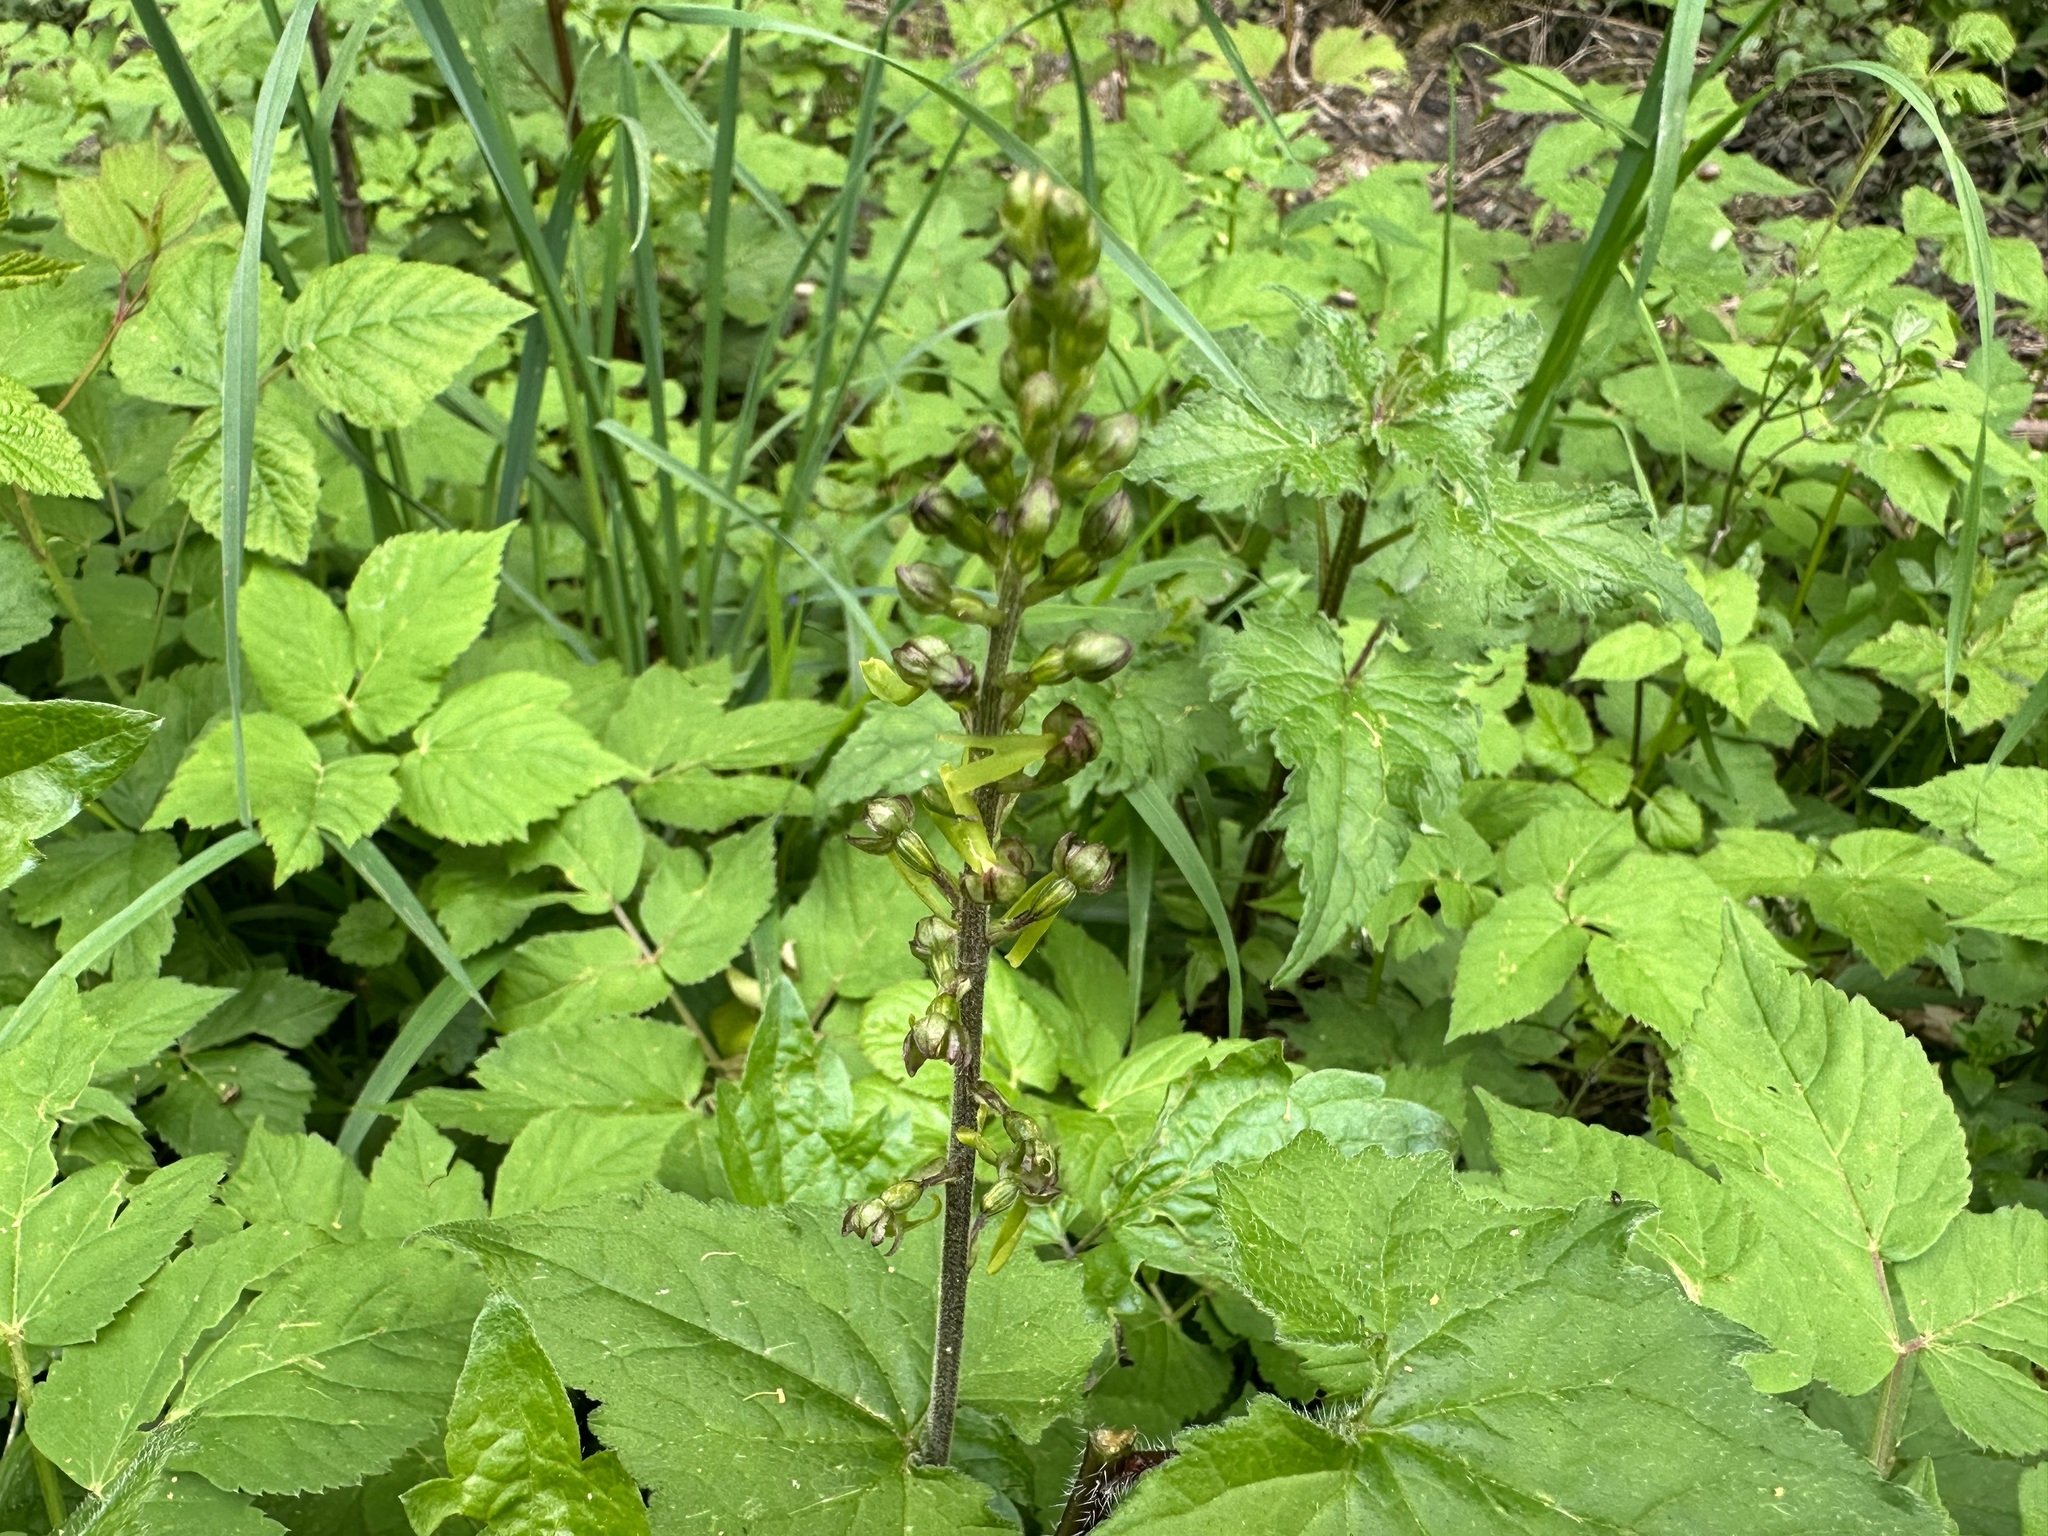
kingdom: Plantae
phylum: Tracheophyta
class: Liliopsida
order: Asparagales
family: Orchidaceae
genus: Neottia
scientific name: Neottia ovata
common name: Common twayblade
